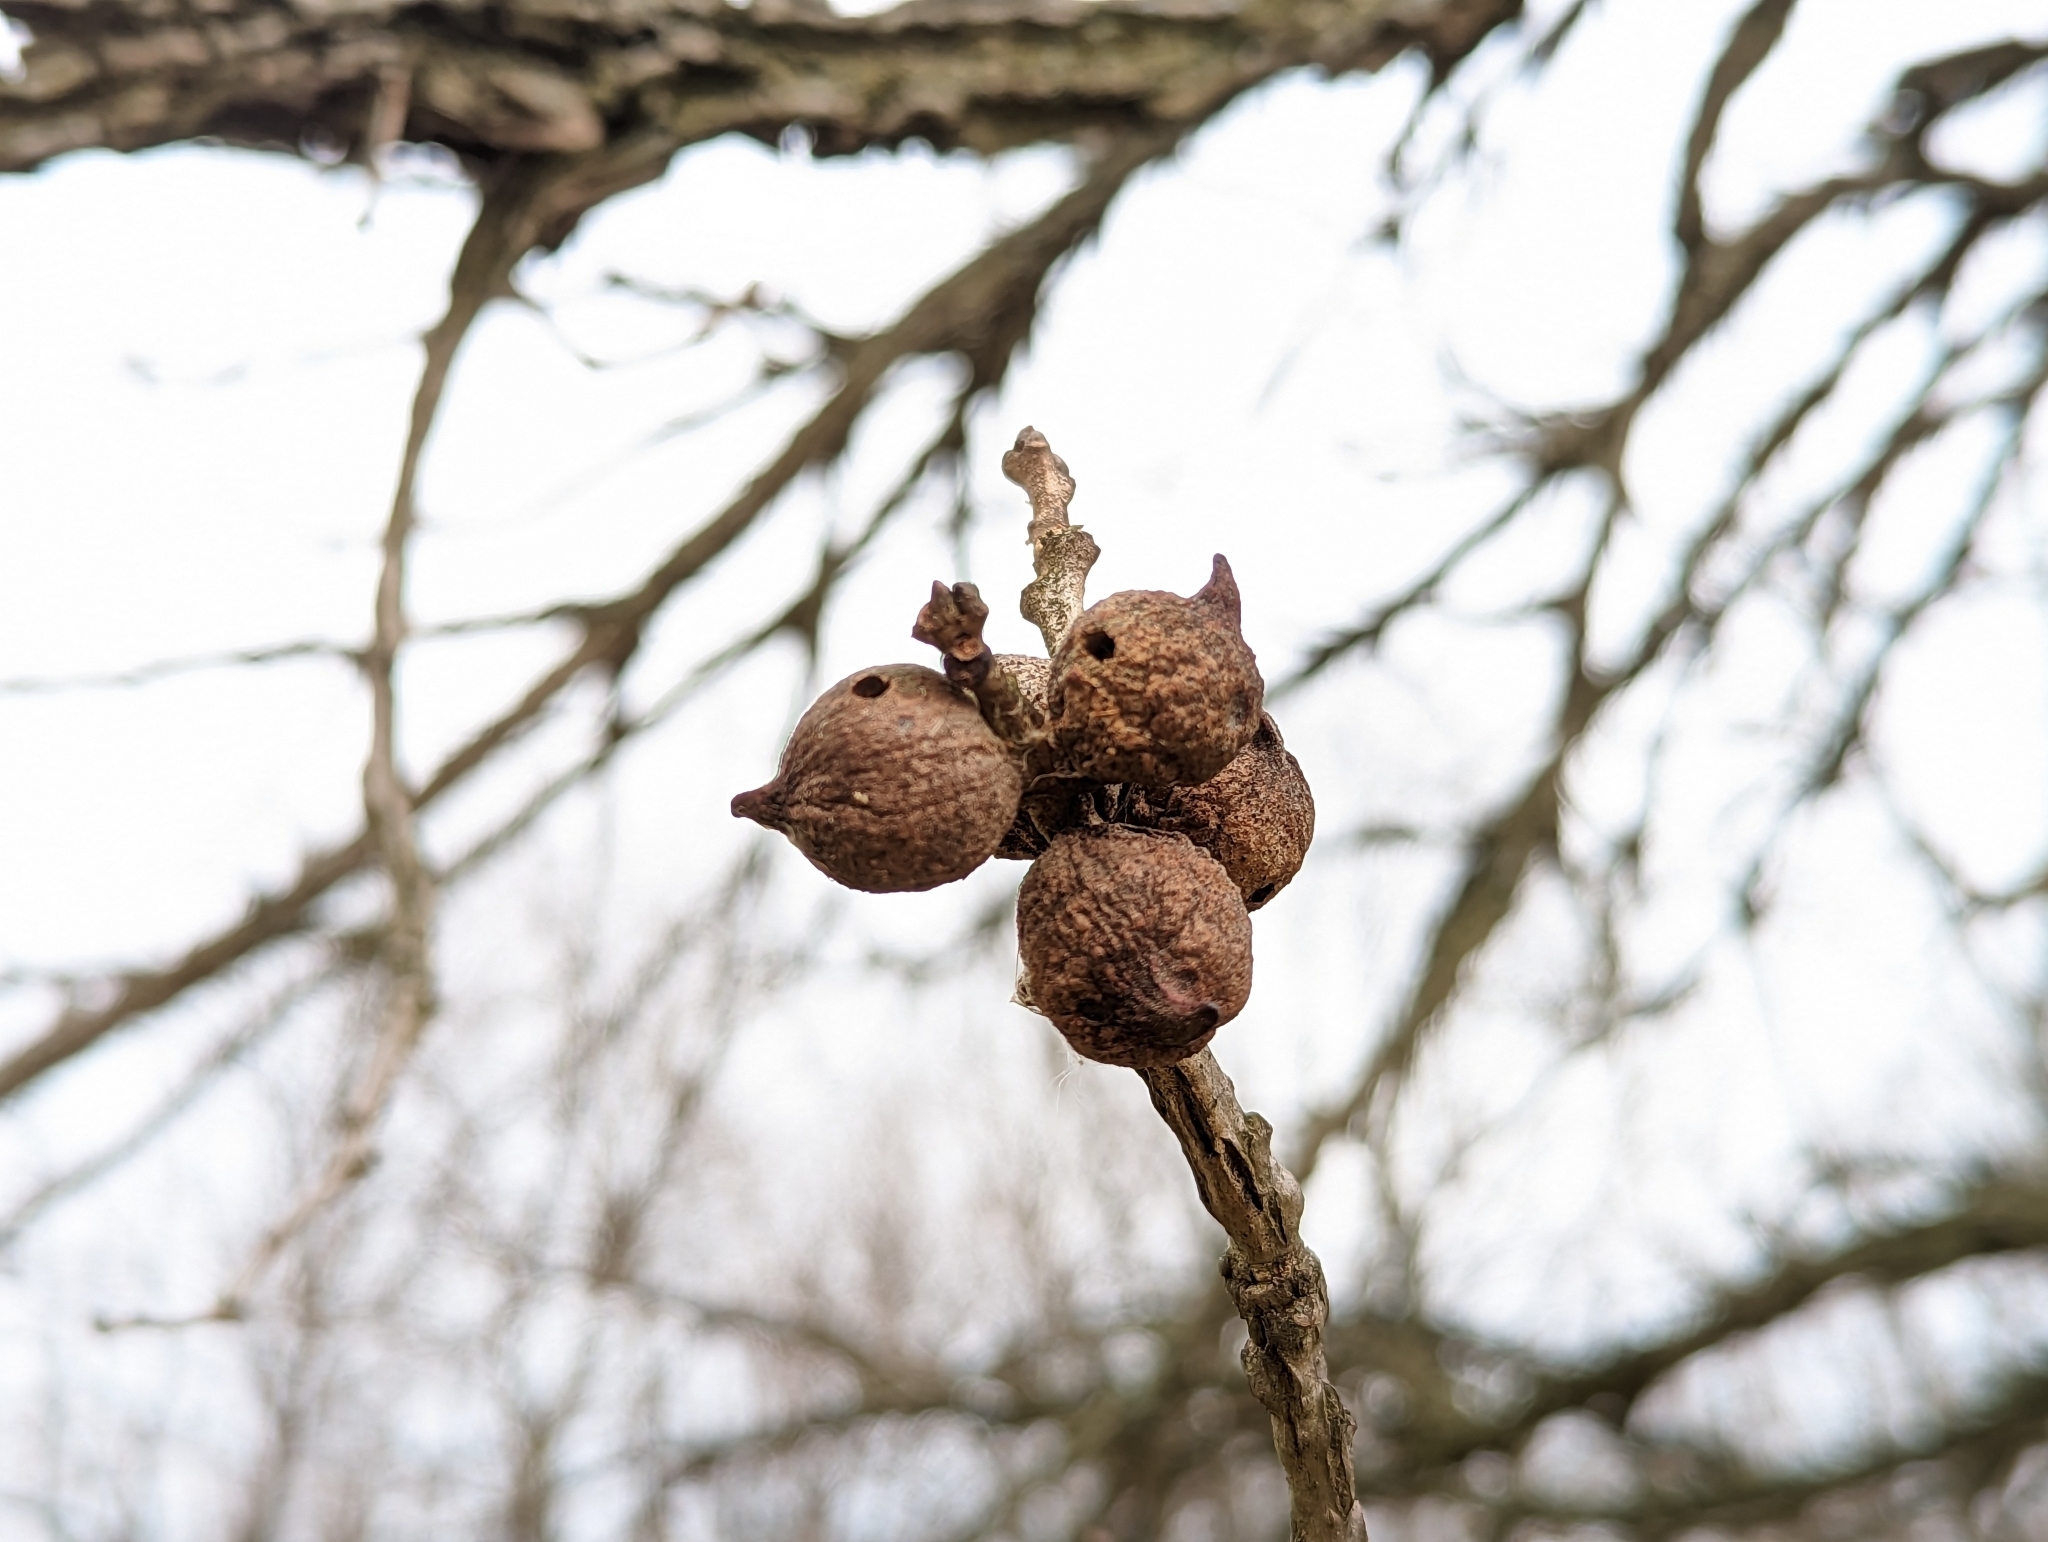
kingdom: Animalia
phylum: Arthropoda
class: Insecta
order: Hymenoptera
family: Cynipidae
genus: Disholcaspis
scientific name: Disholcaspis
